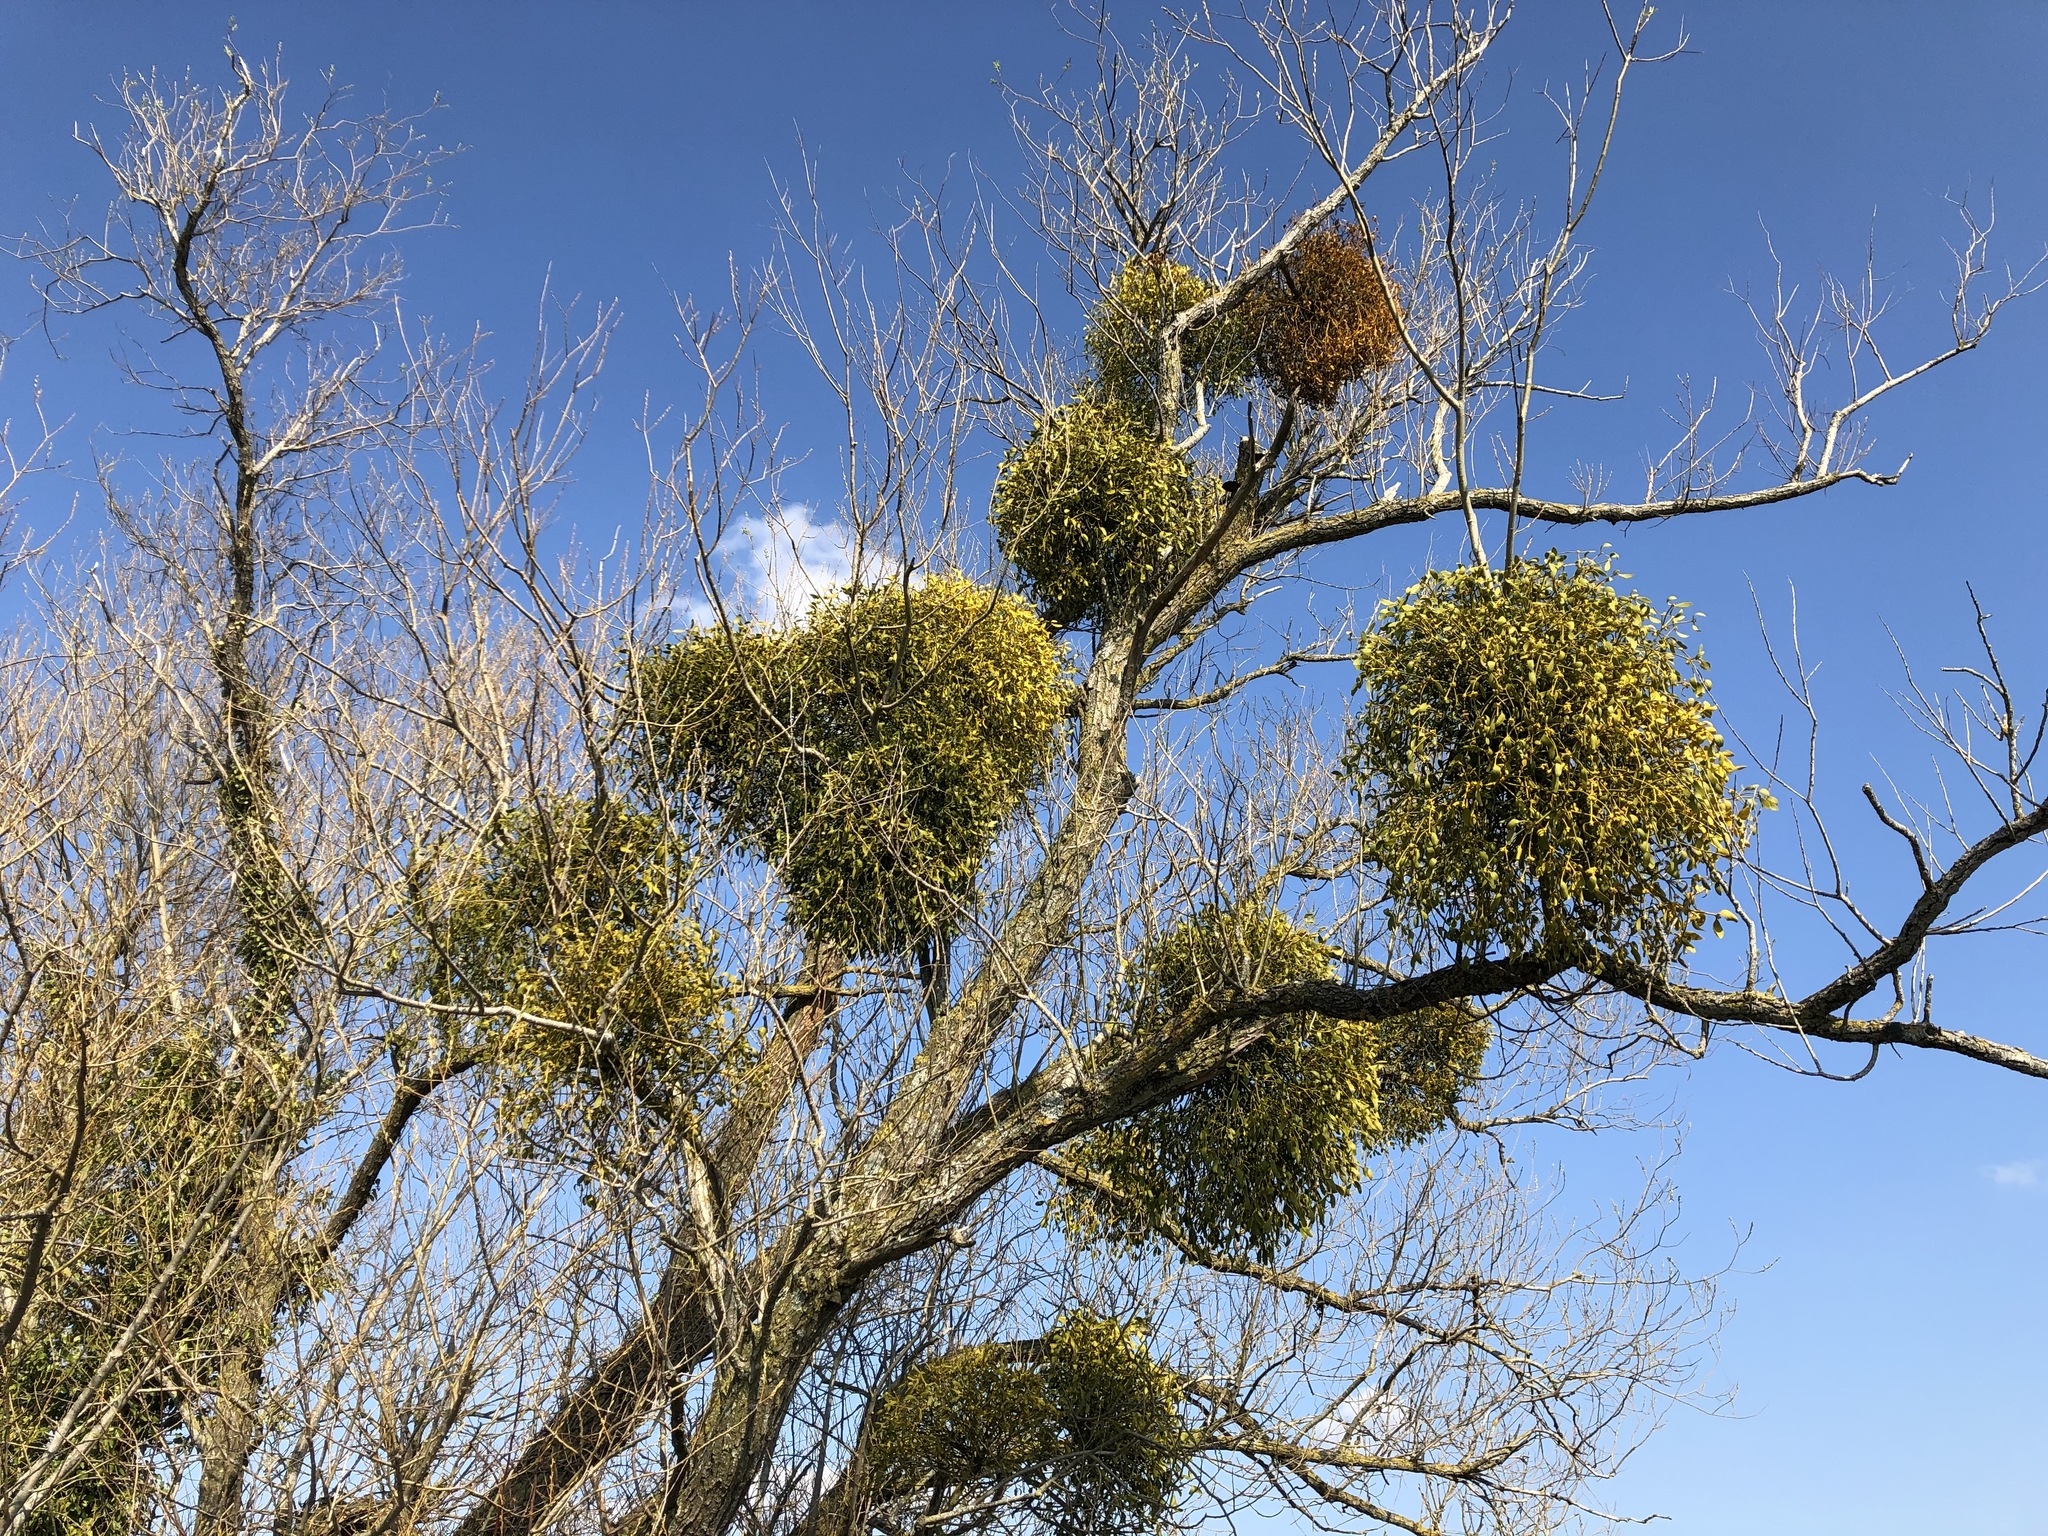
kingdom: Plantae
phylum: Tracheophyta
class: Magnoliopsida
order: Santalales
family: Viscaceae
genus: Viscum
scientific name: Viscum album
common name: Mistletoe
